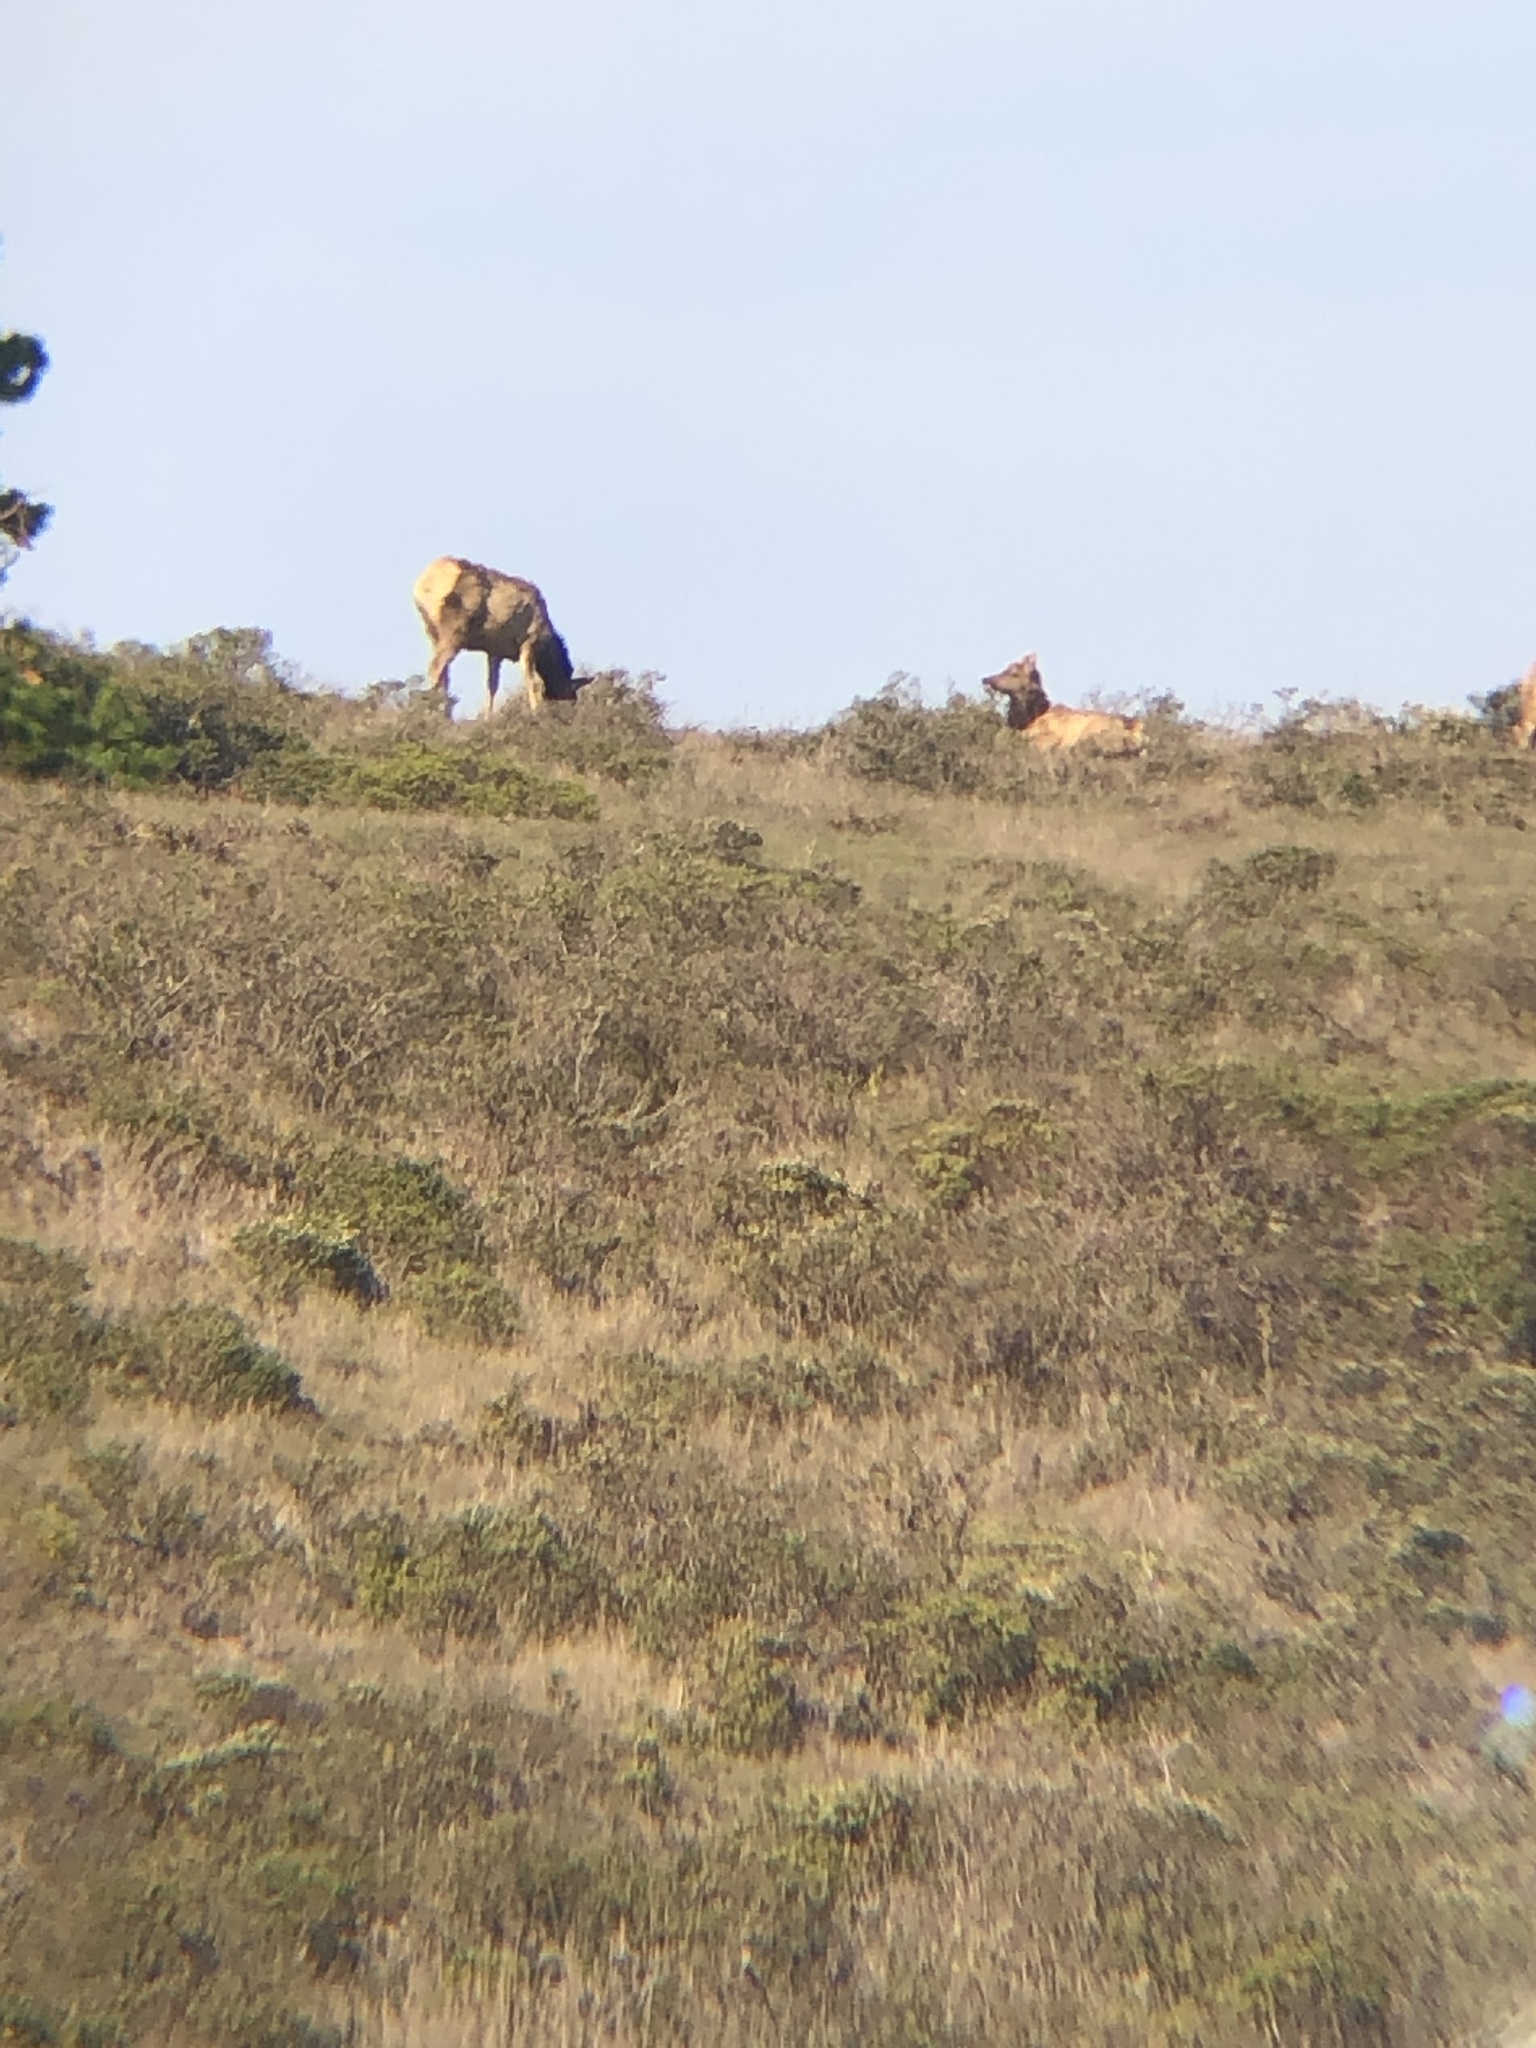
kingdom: Animalia
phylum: Chordata
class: Mammalia
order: Artiodactyla
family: Cervidae
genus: Cervus
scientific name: Cervus elaphus
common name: Red deer
